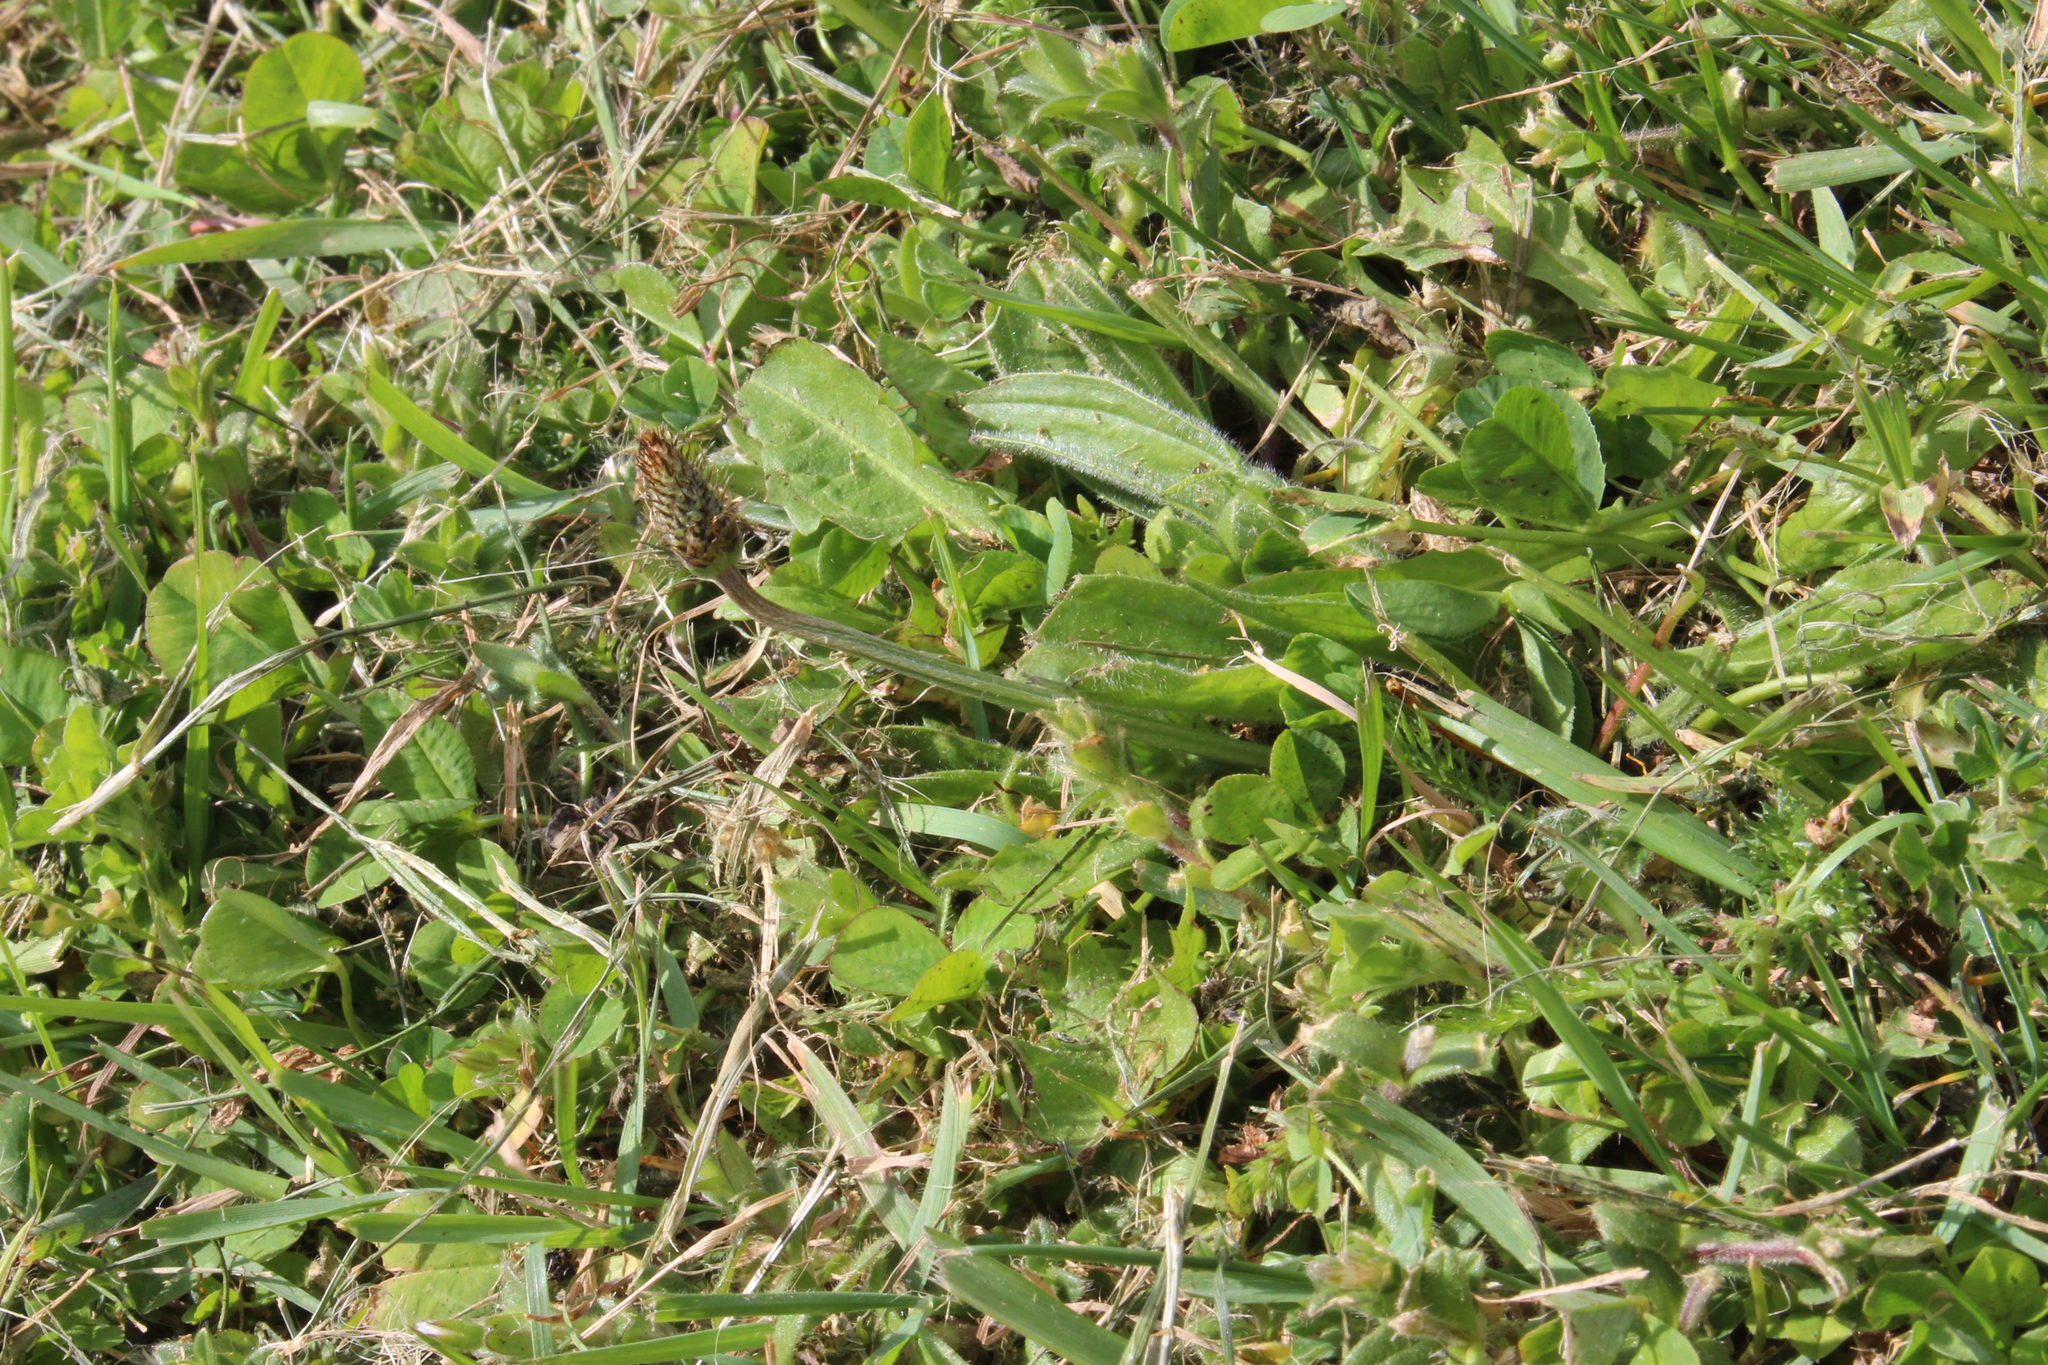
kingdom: Plantae
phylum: Tracheophyta
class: Magnoliopsida
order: Lamiales
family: Plantaginaceae
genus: Plantago
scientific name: Plantago lanceolata
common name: Ribwort plantain
